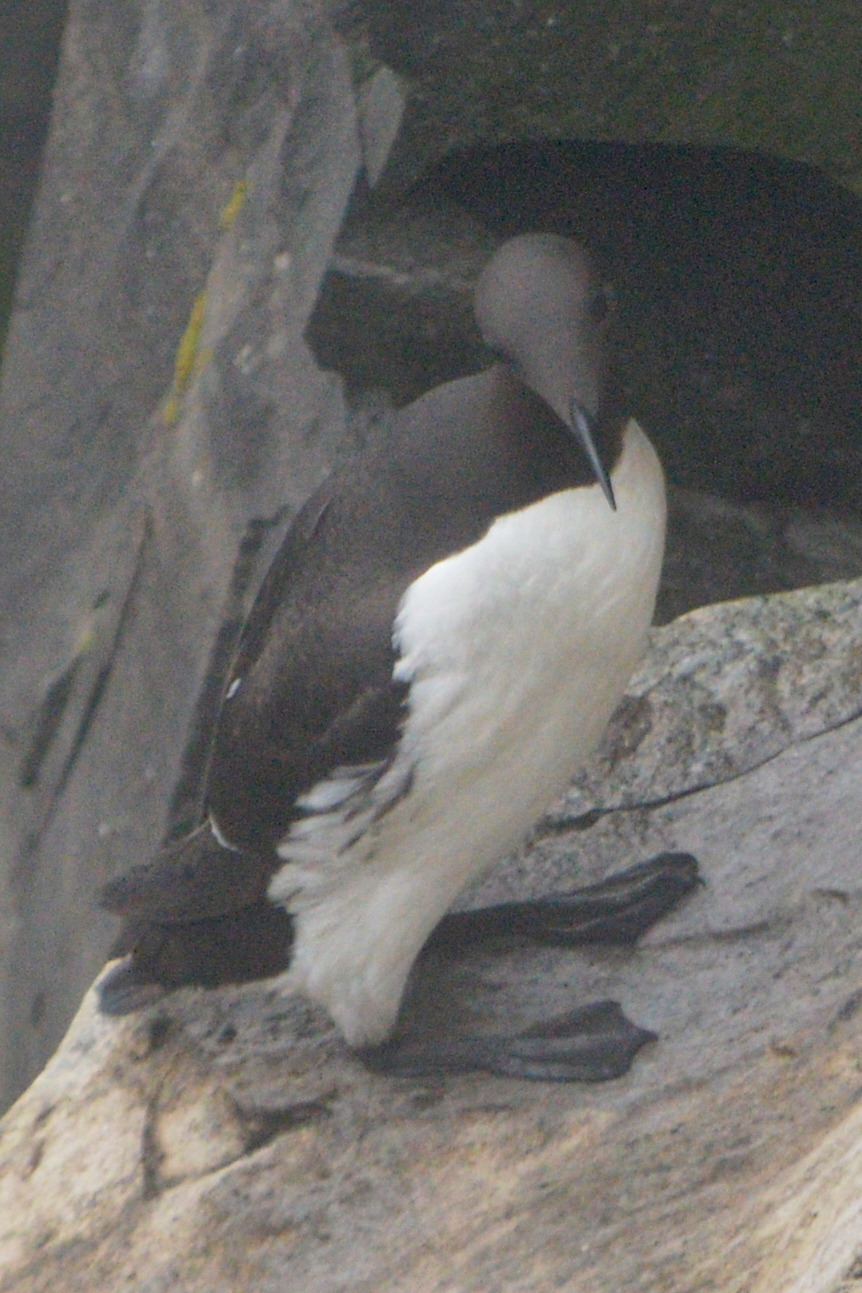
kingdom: Animalia
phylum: Chordata
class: Aves
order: Charadriiformes
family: Alcidae
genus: Uria
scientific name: Uria aalge
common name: Common murre
